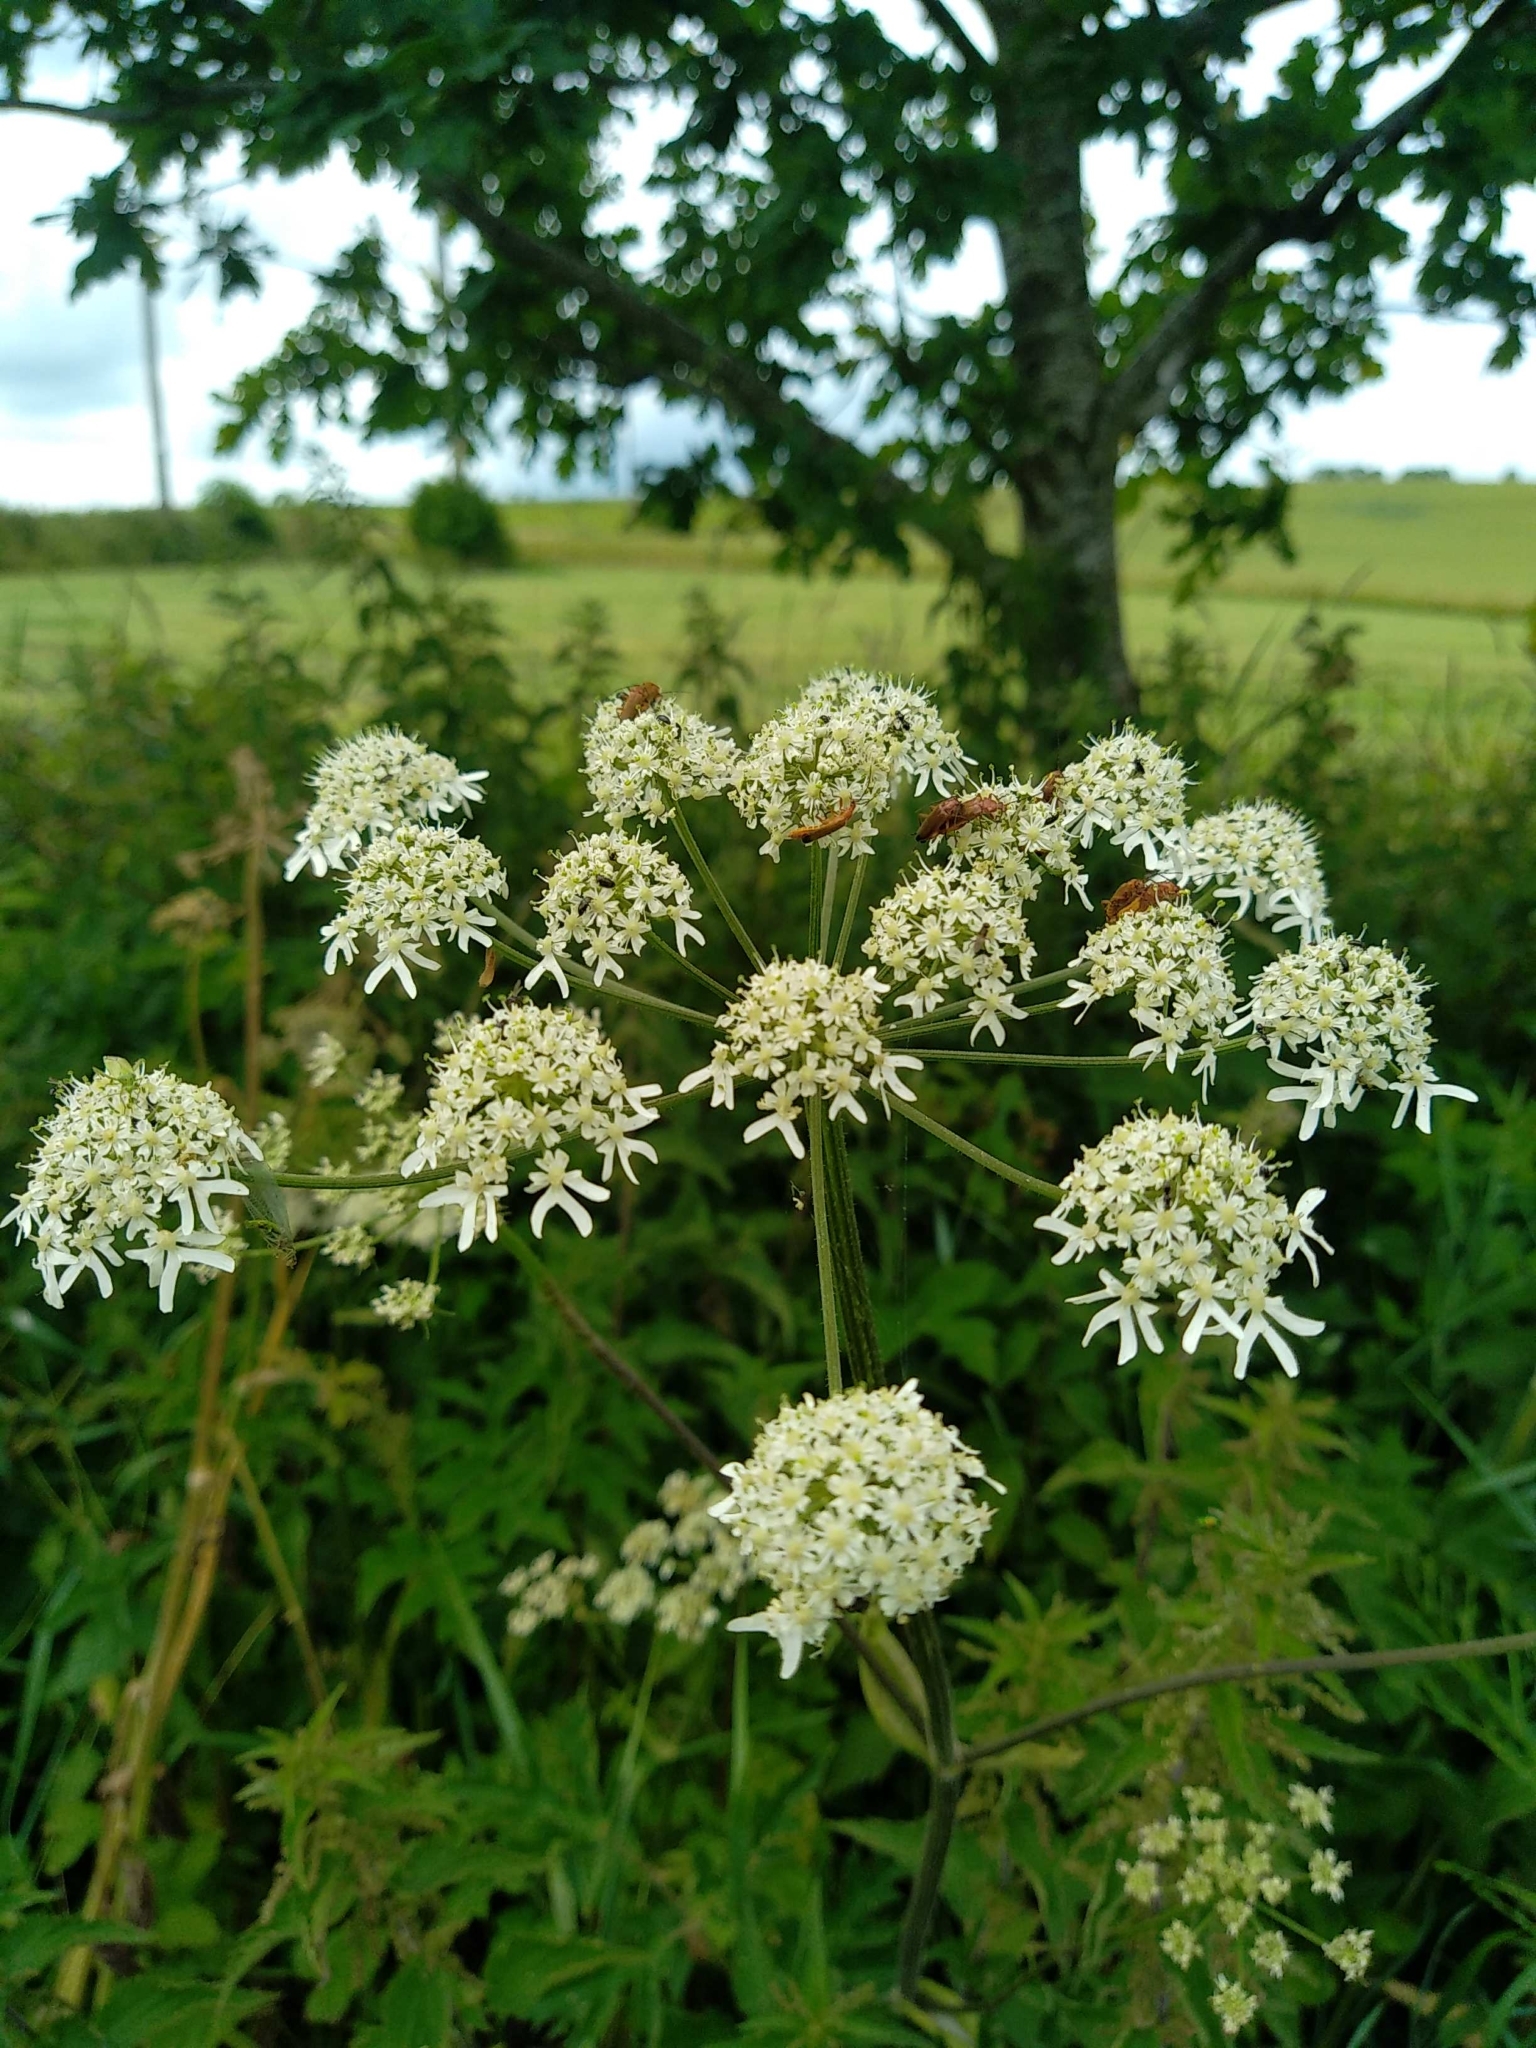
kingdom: Plantae
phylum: Tracheophyta
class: Magnoliopsida
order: Apiales
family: Apiaceae
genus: Heracleum
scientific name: Heracleum sphondylium
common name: Hogweed
